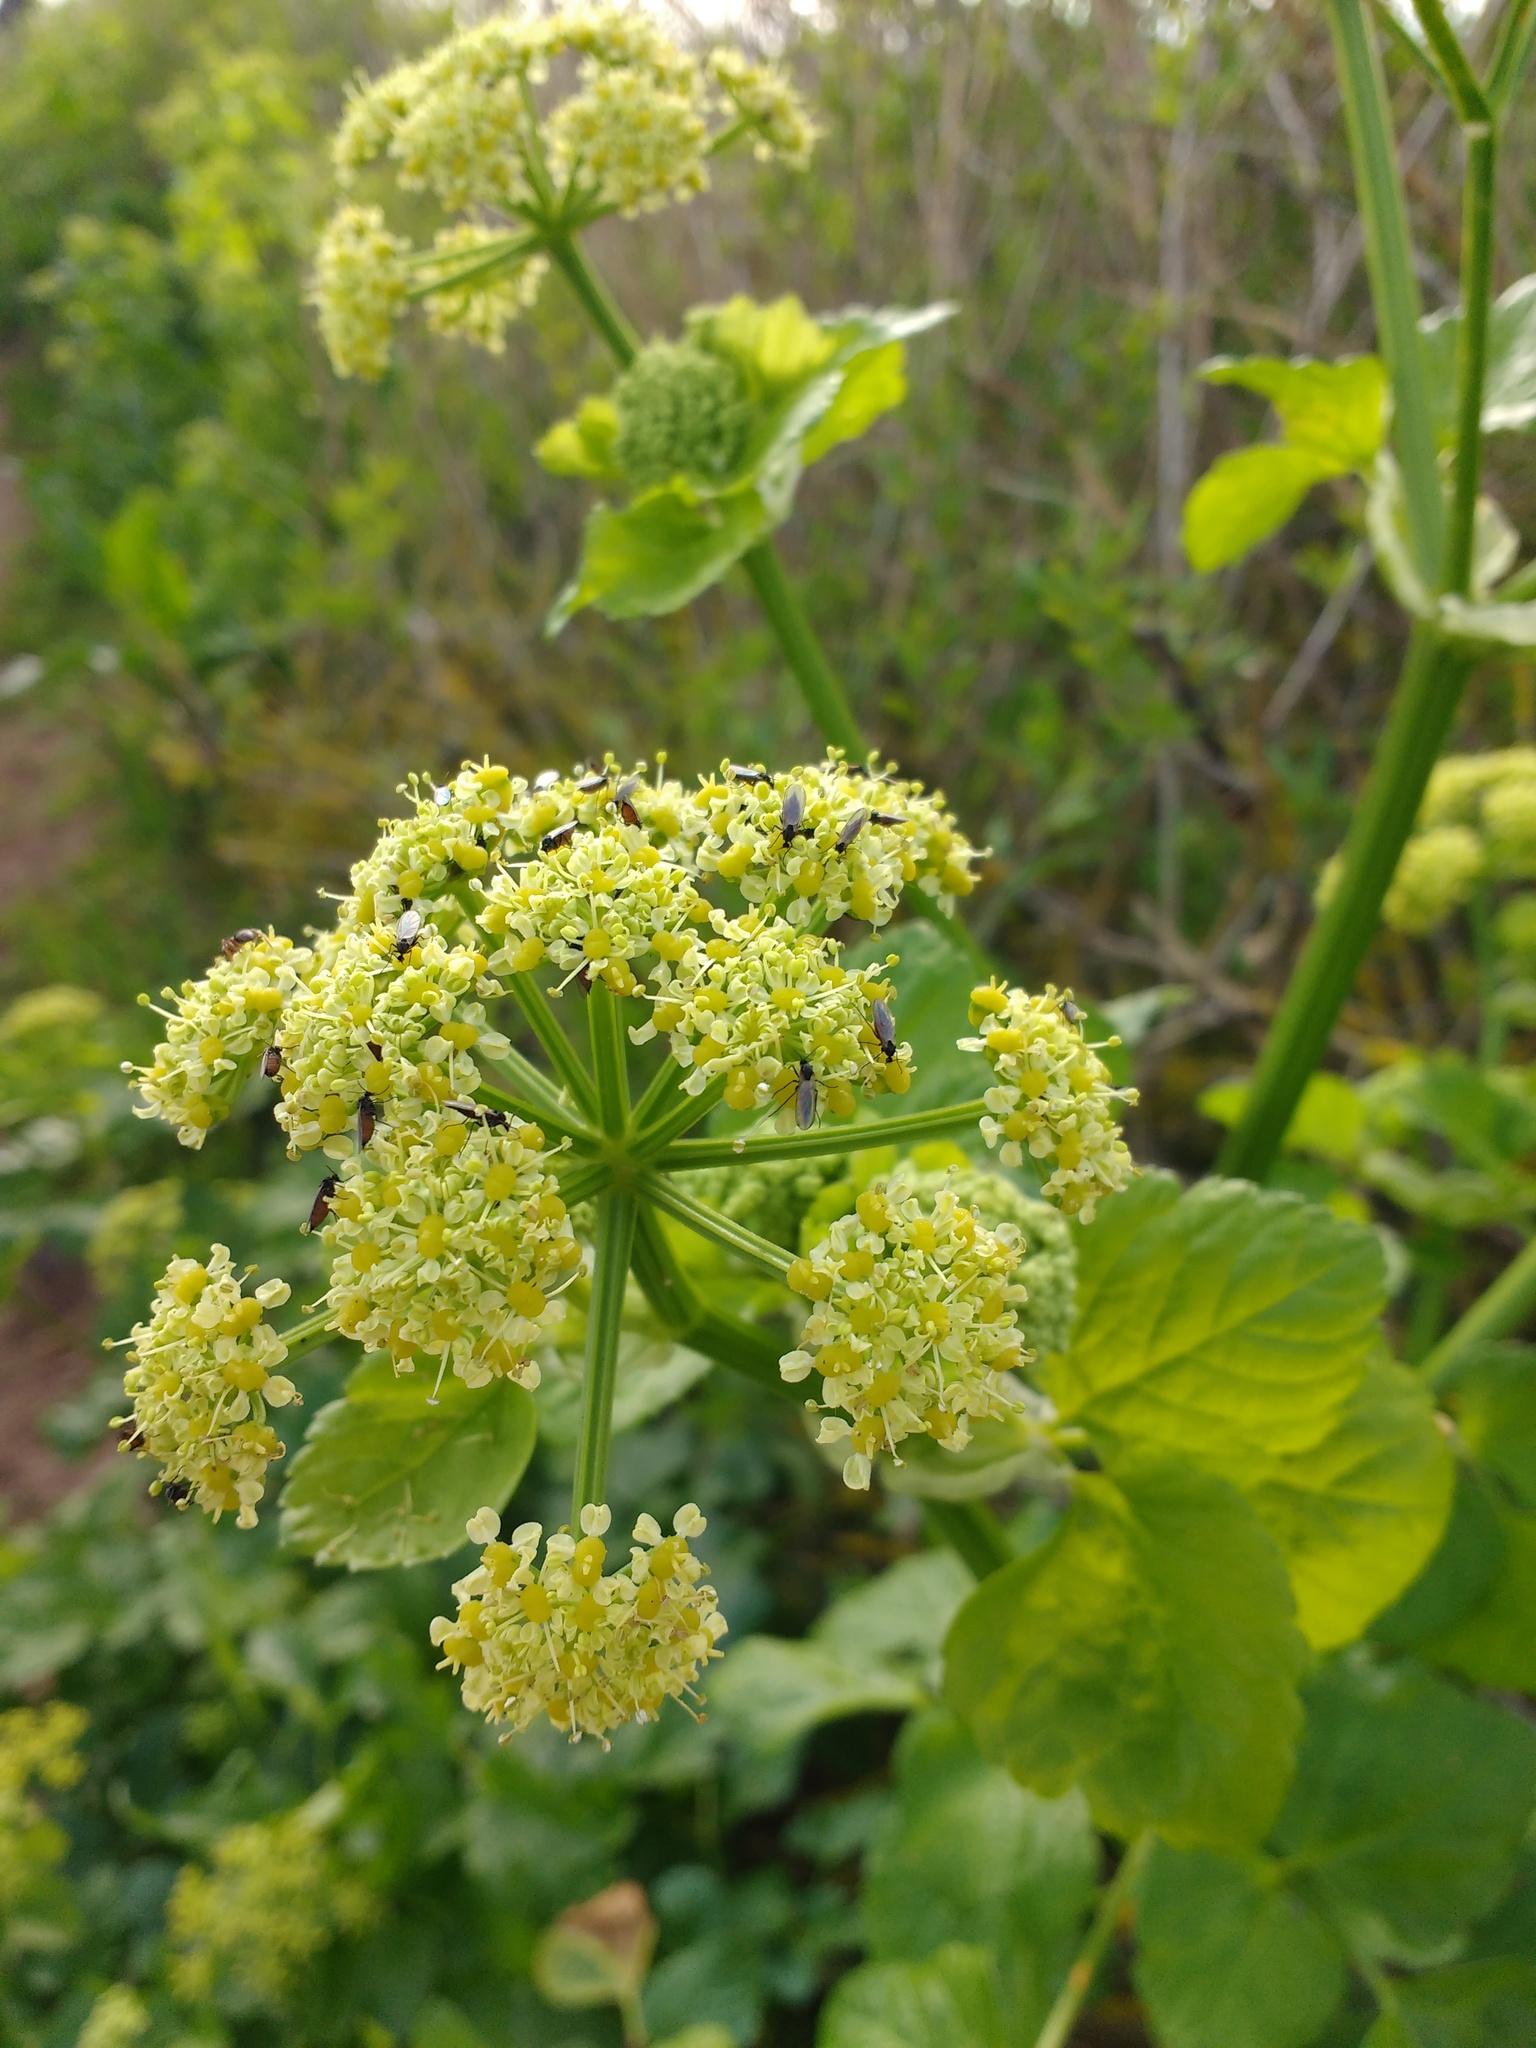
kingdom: Plantae
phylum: Tracheophyta
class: Magnoliopsida
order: Apiales
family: Apiaceae
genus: Smyrnium
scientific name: Smyrnium olusatrum
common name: Alexanders
